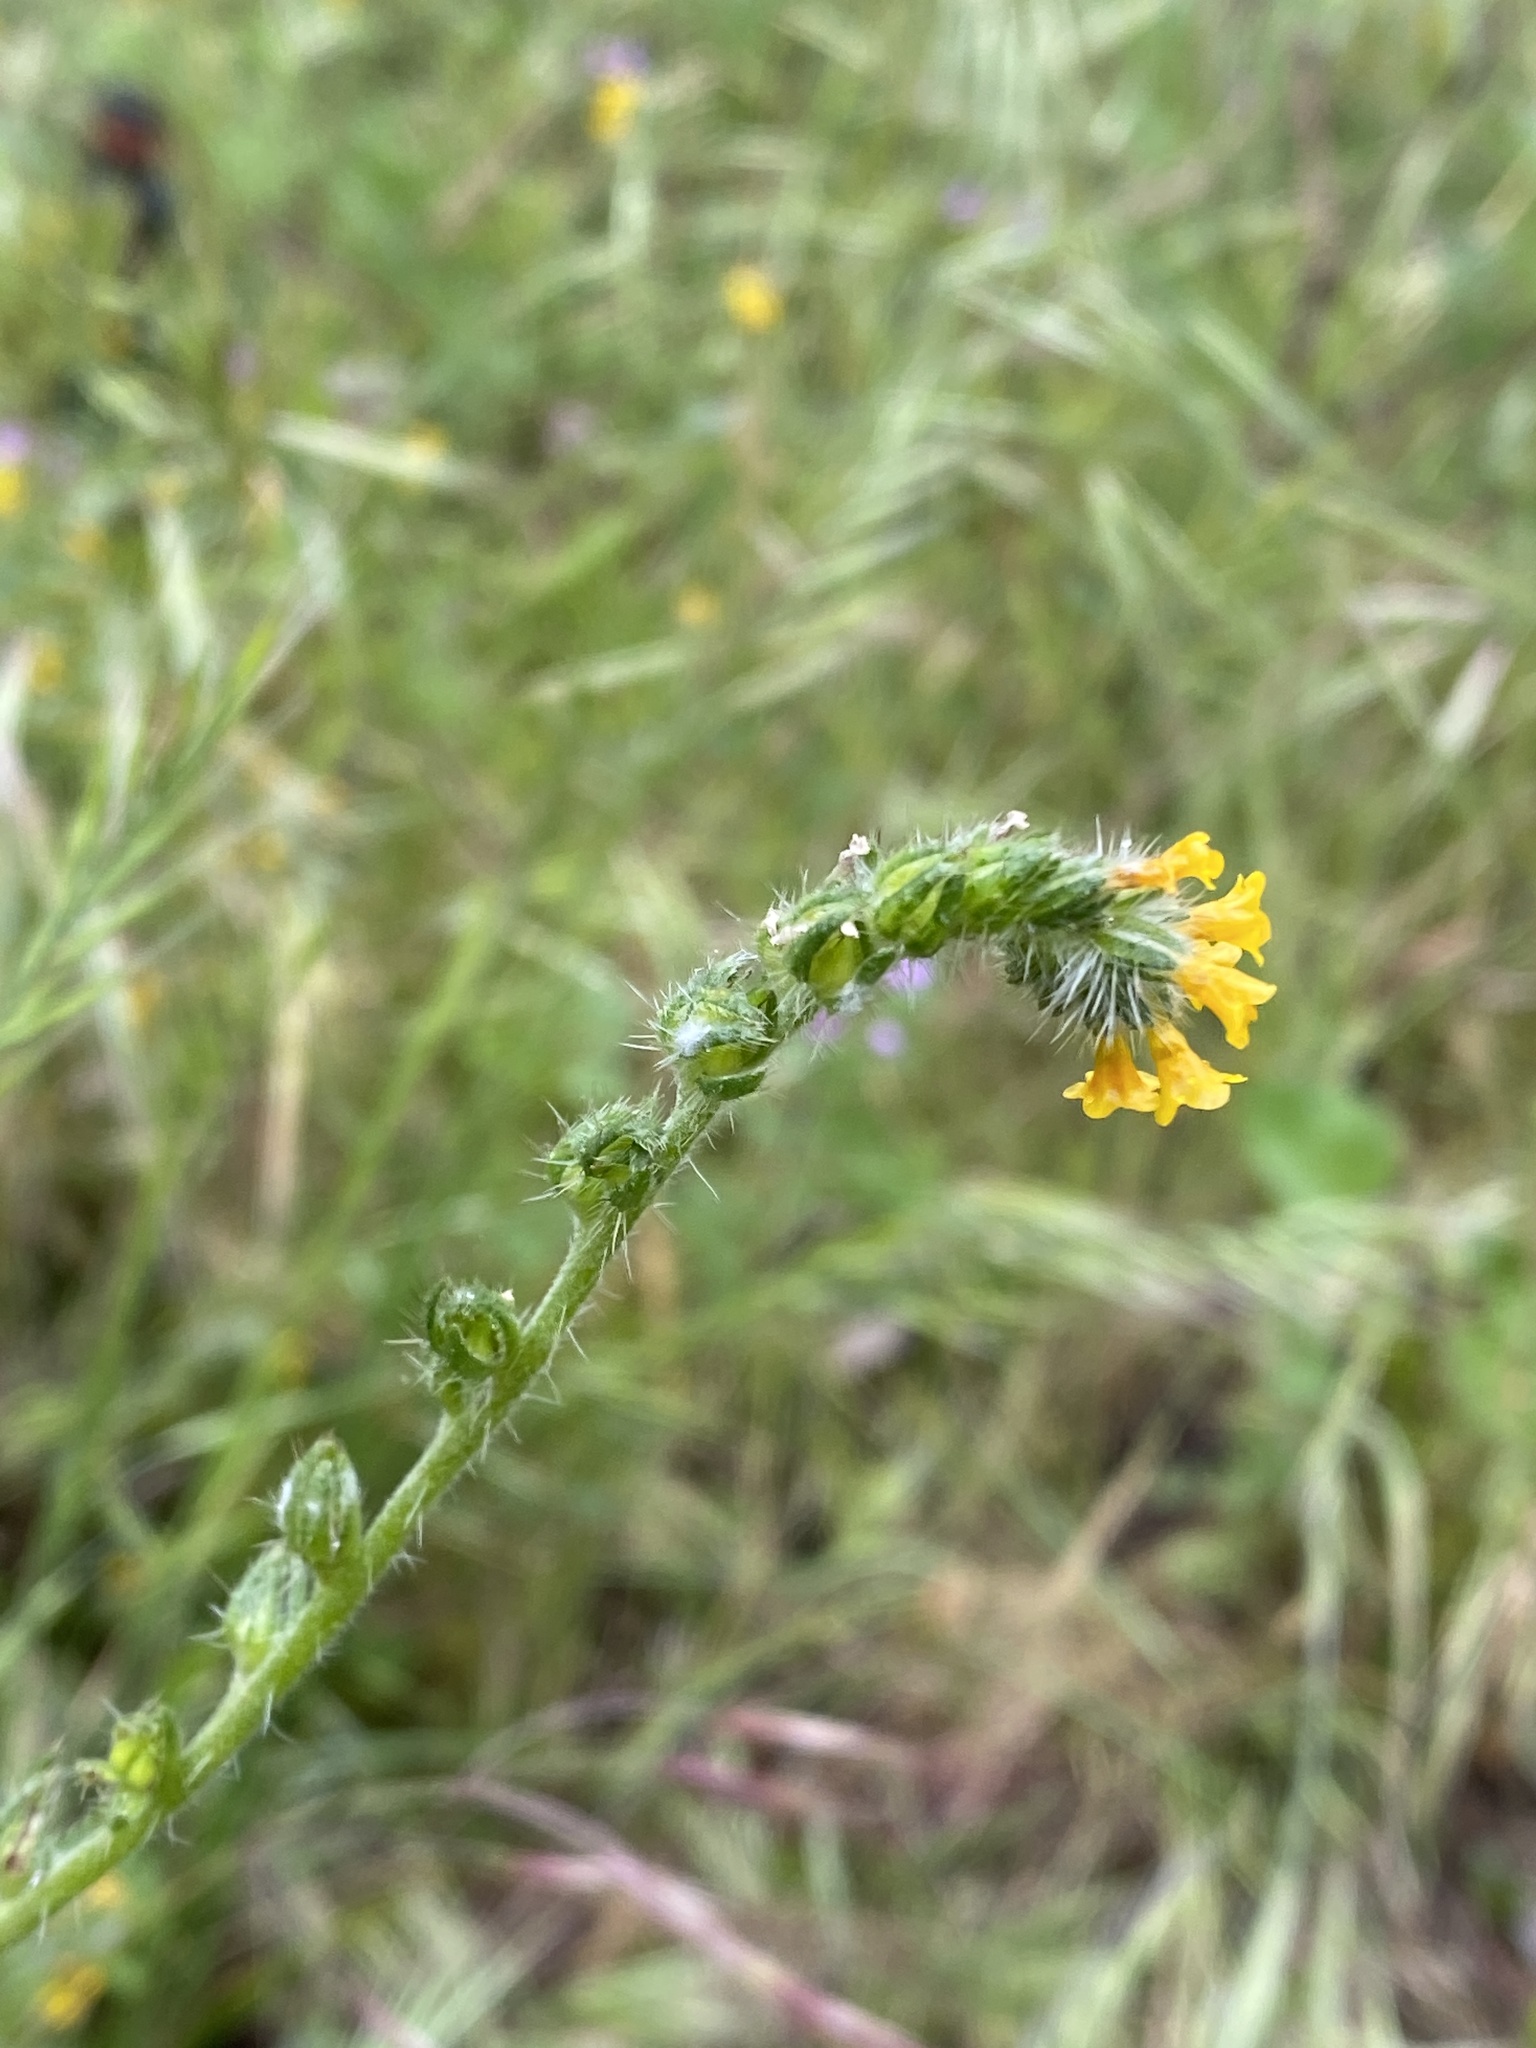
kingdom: Plantae
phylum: Tracheophyta
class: Magnoliopsida
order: Boraginales
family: Boraginaceae
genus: Amsinckia
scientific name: Amsinckia menziesii
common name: Menzies' fiddleneck
